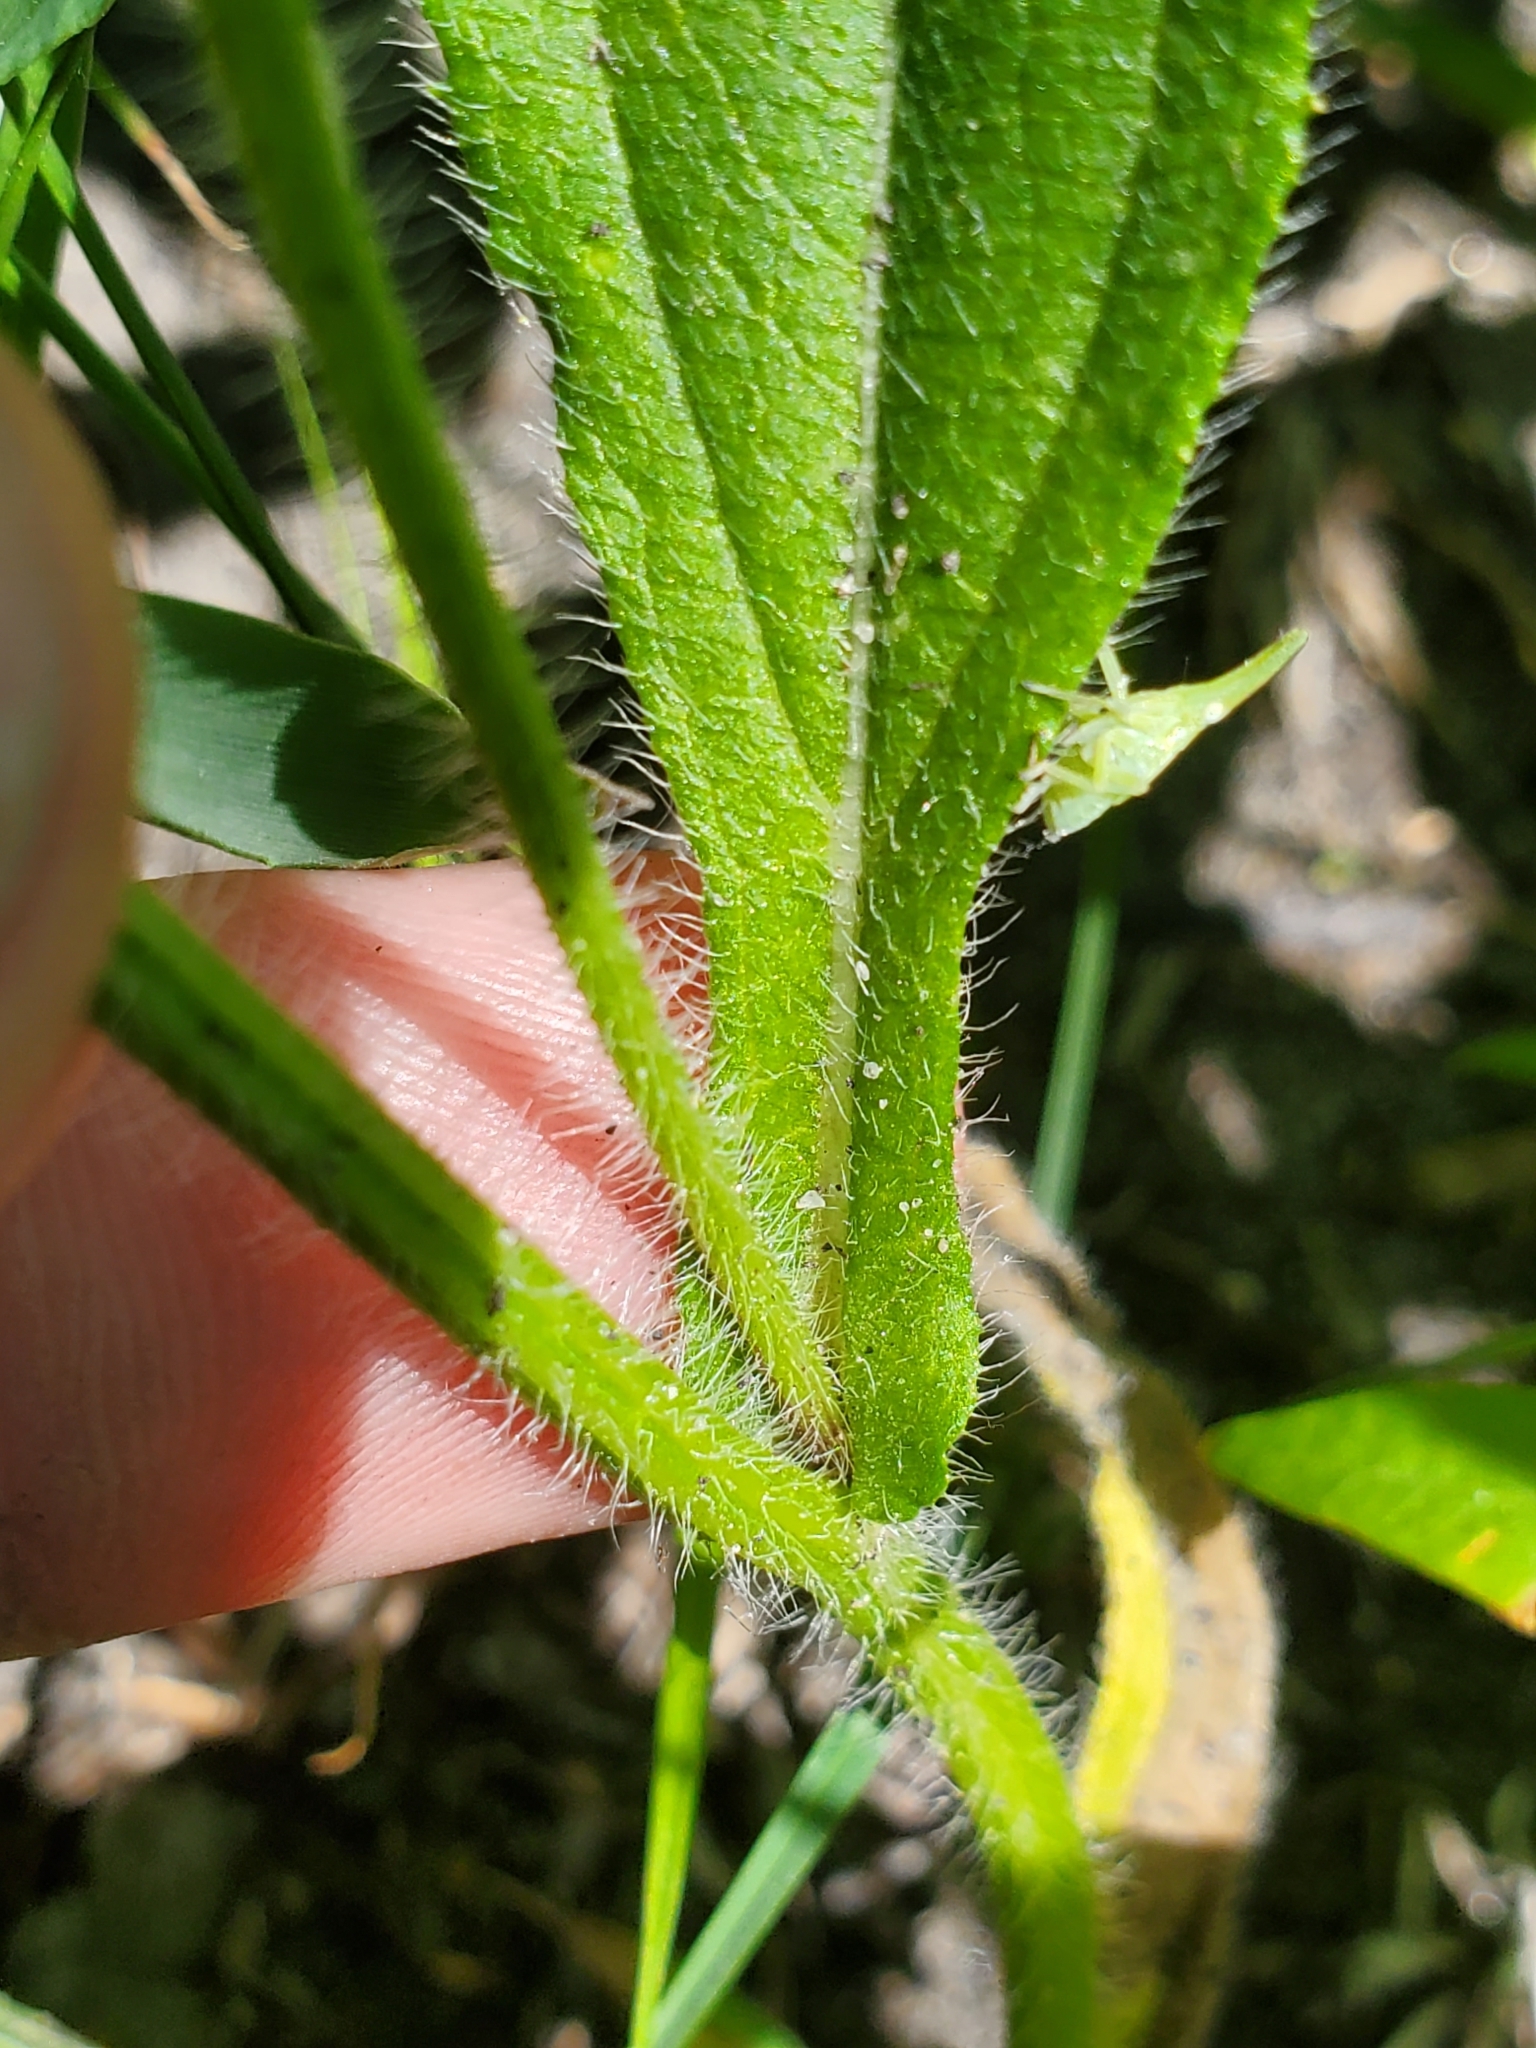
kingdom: Plantae
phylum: Tracheophyta
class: Magnoliopsida
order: Asterales
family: Asteraceae
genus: Rudbeckia
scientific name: Rudbeckia hirta
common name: Black-eyed-susan
